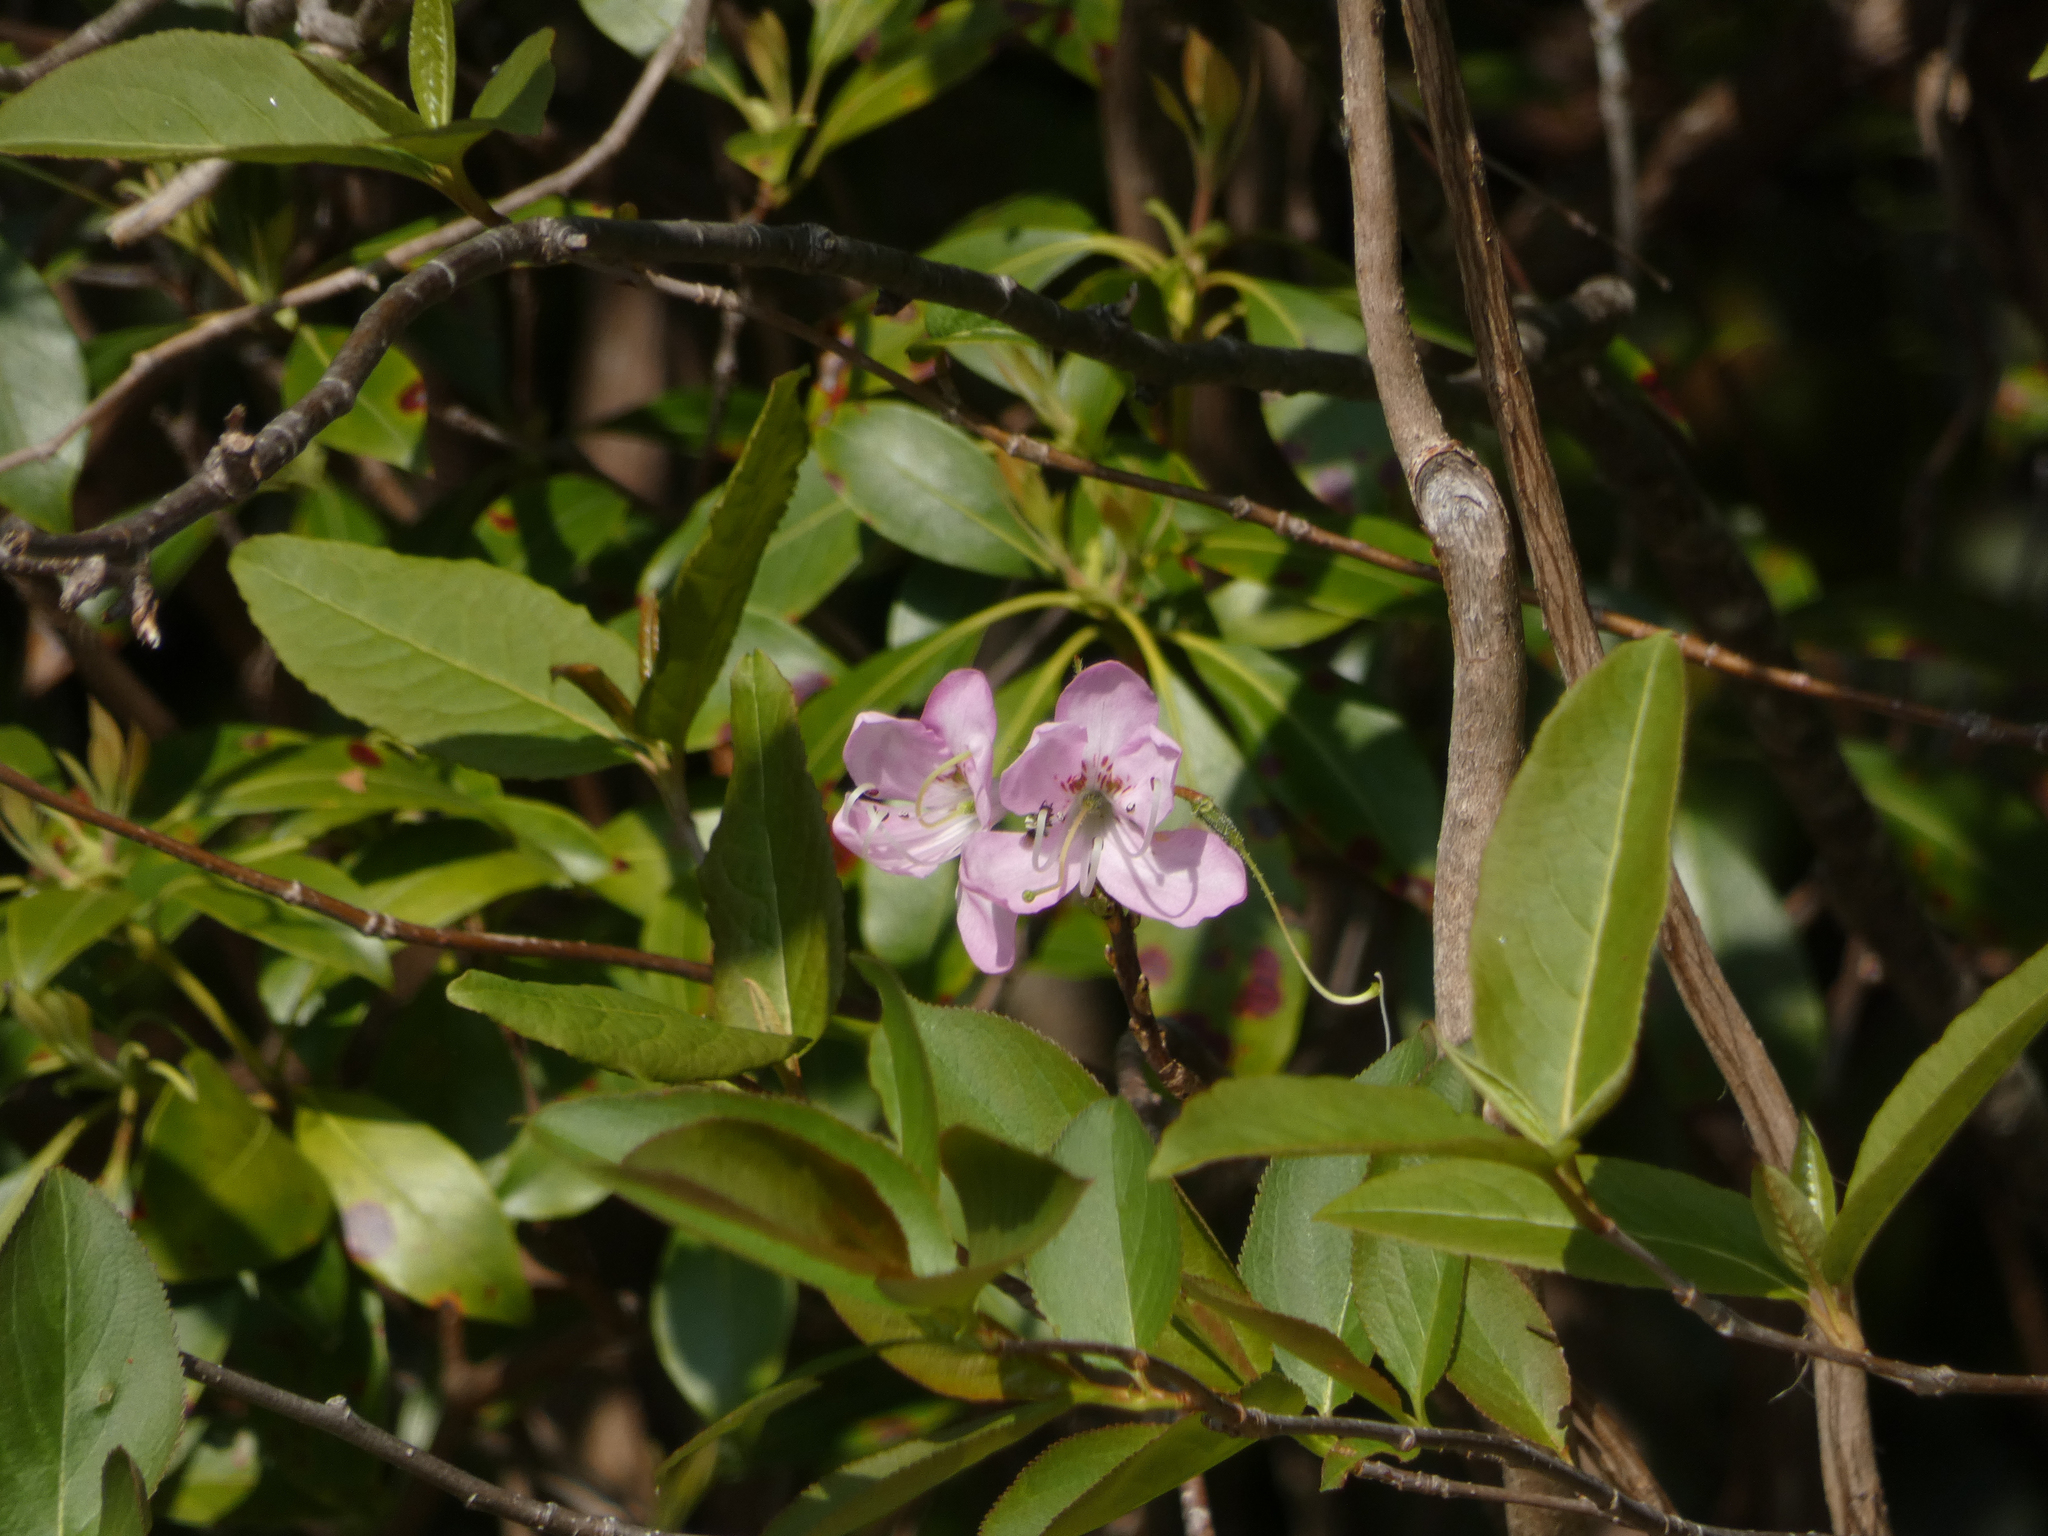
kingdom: Plantae
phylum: Tracheophyta
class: Magnoliopsida
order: Ericales
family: Ericaceae
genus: Rhododendron
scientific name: Rhododendron vaseyi
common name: Pink-shell azalea
